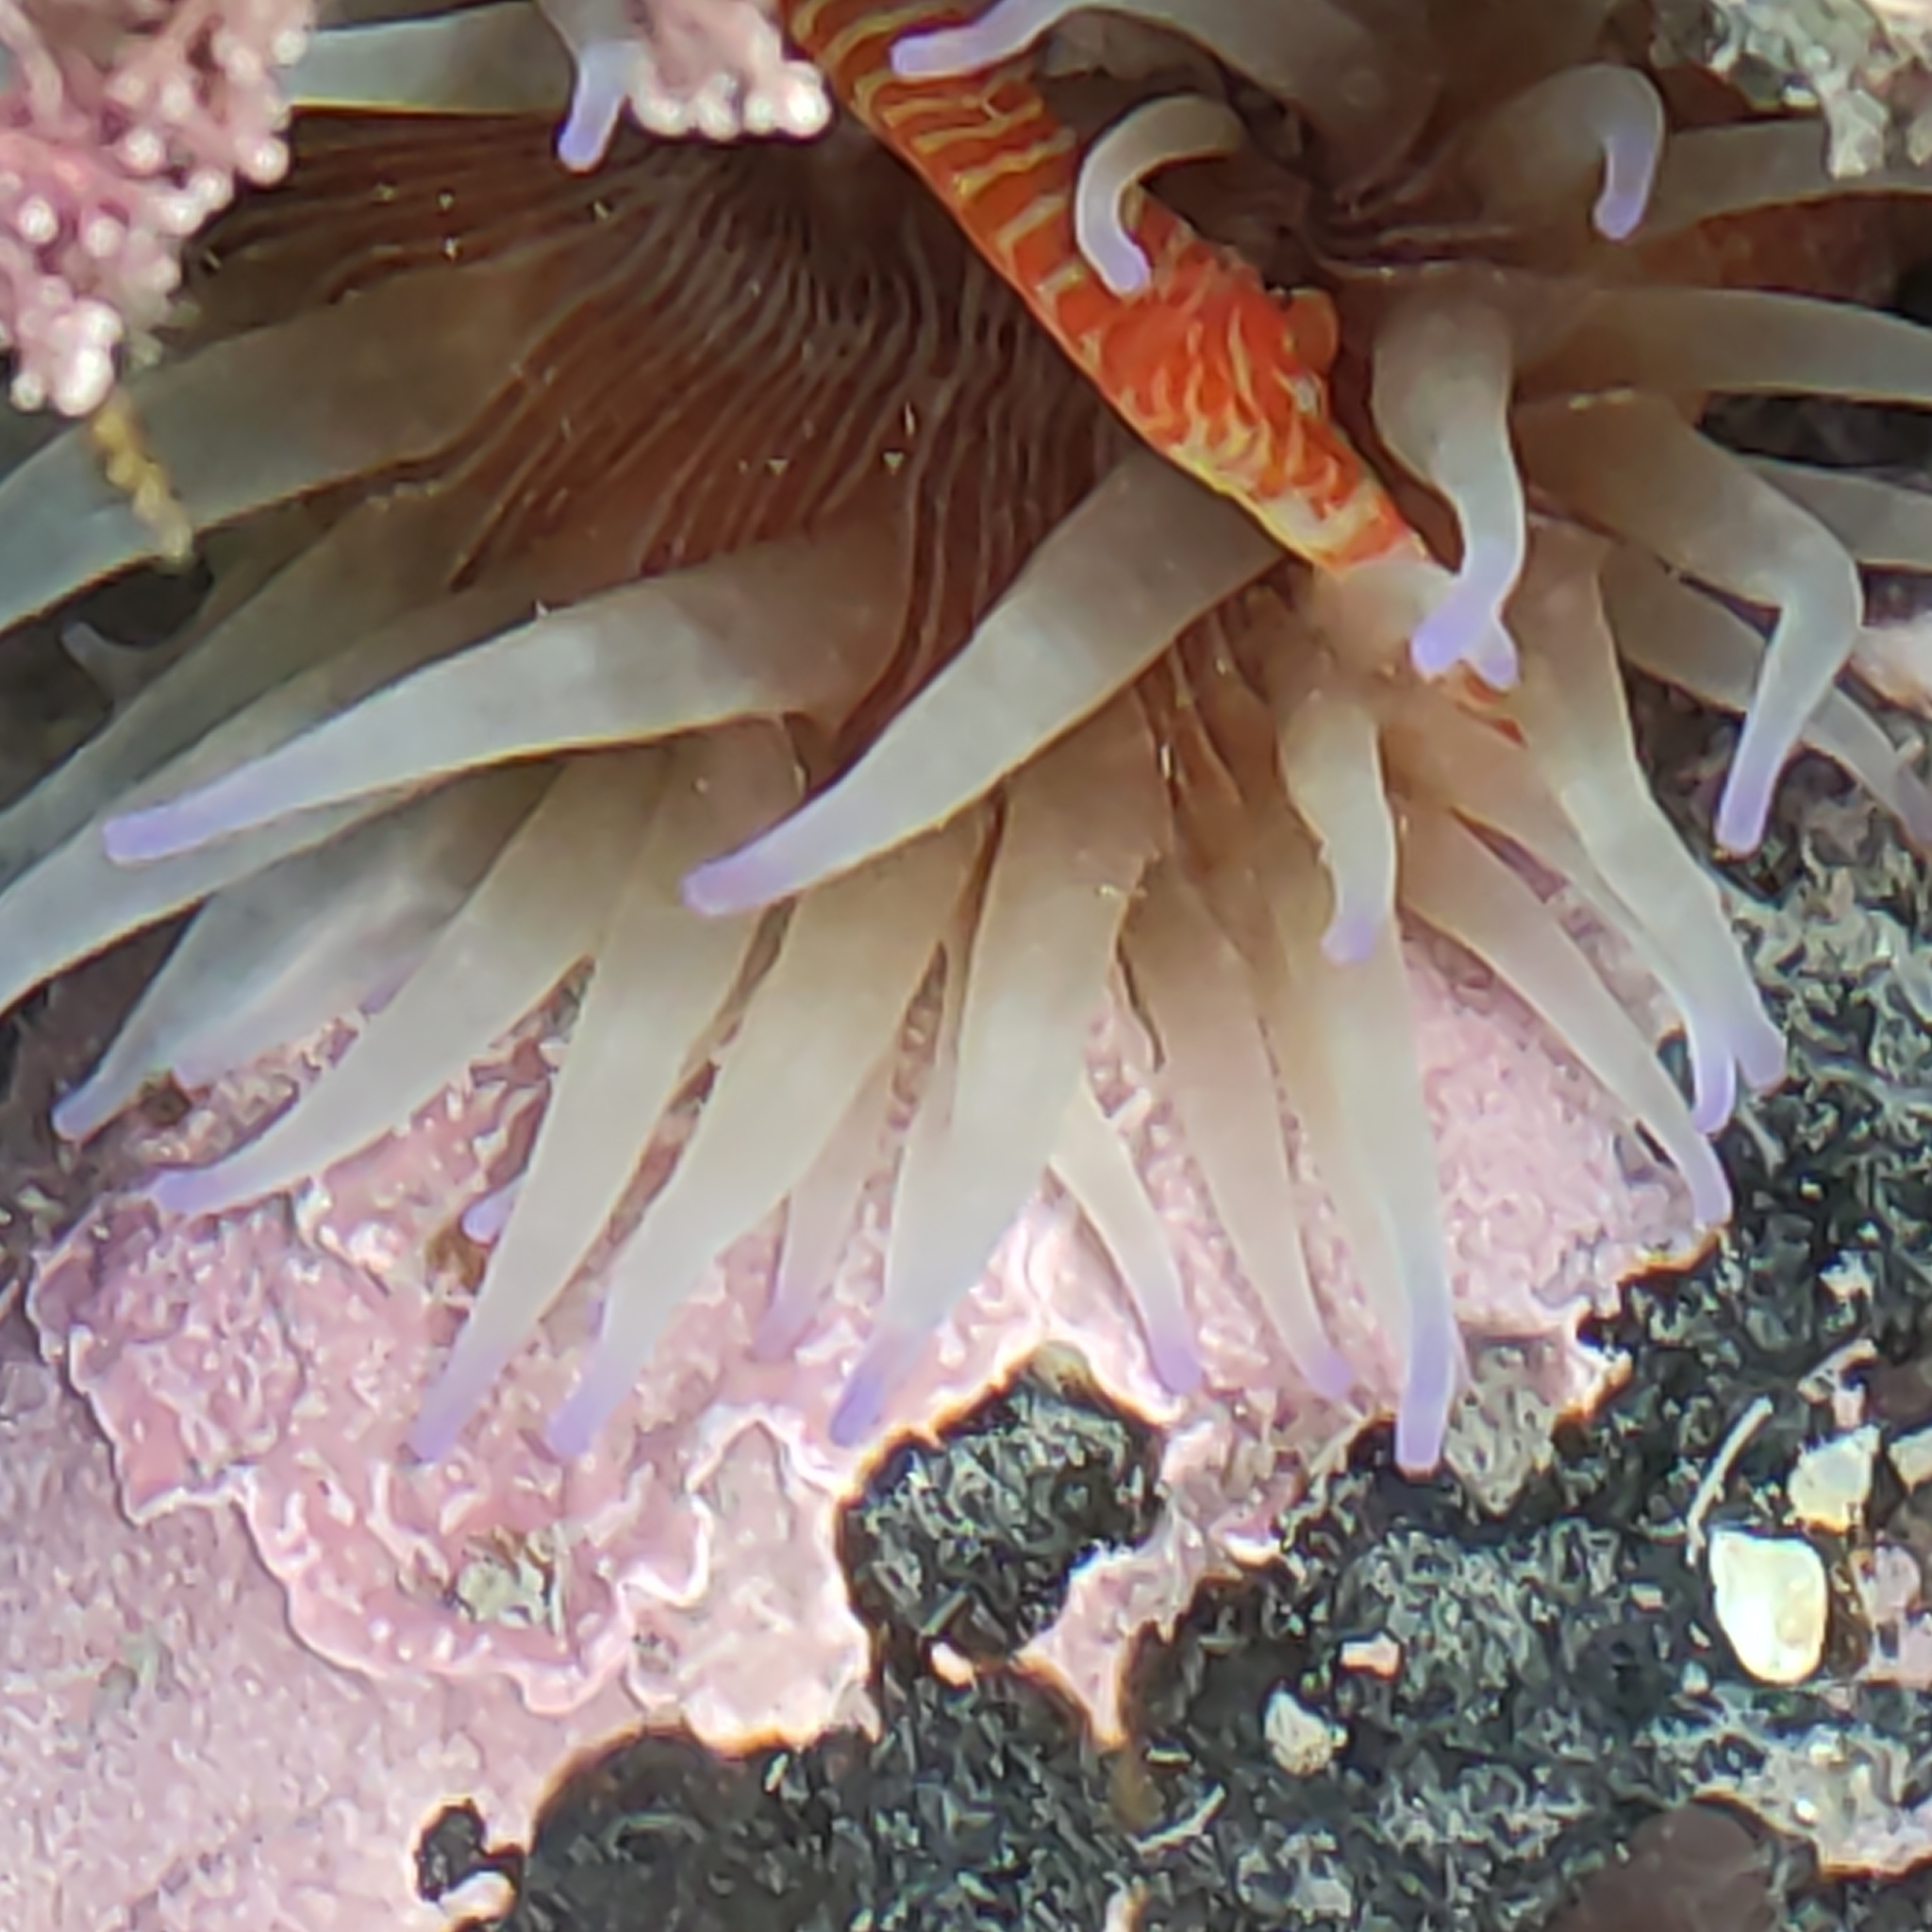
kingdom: Animalia
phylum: Cnidaria
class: Anthozoa
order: Actiniaria
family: Actiniidae
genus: Epiactis
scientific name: Epiactis thompsoni
